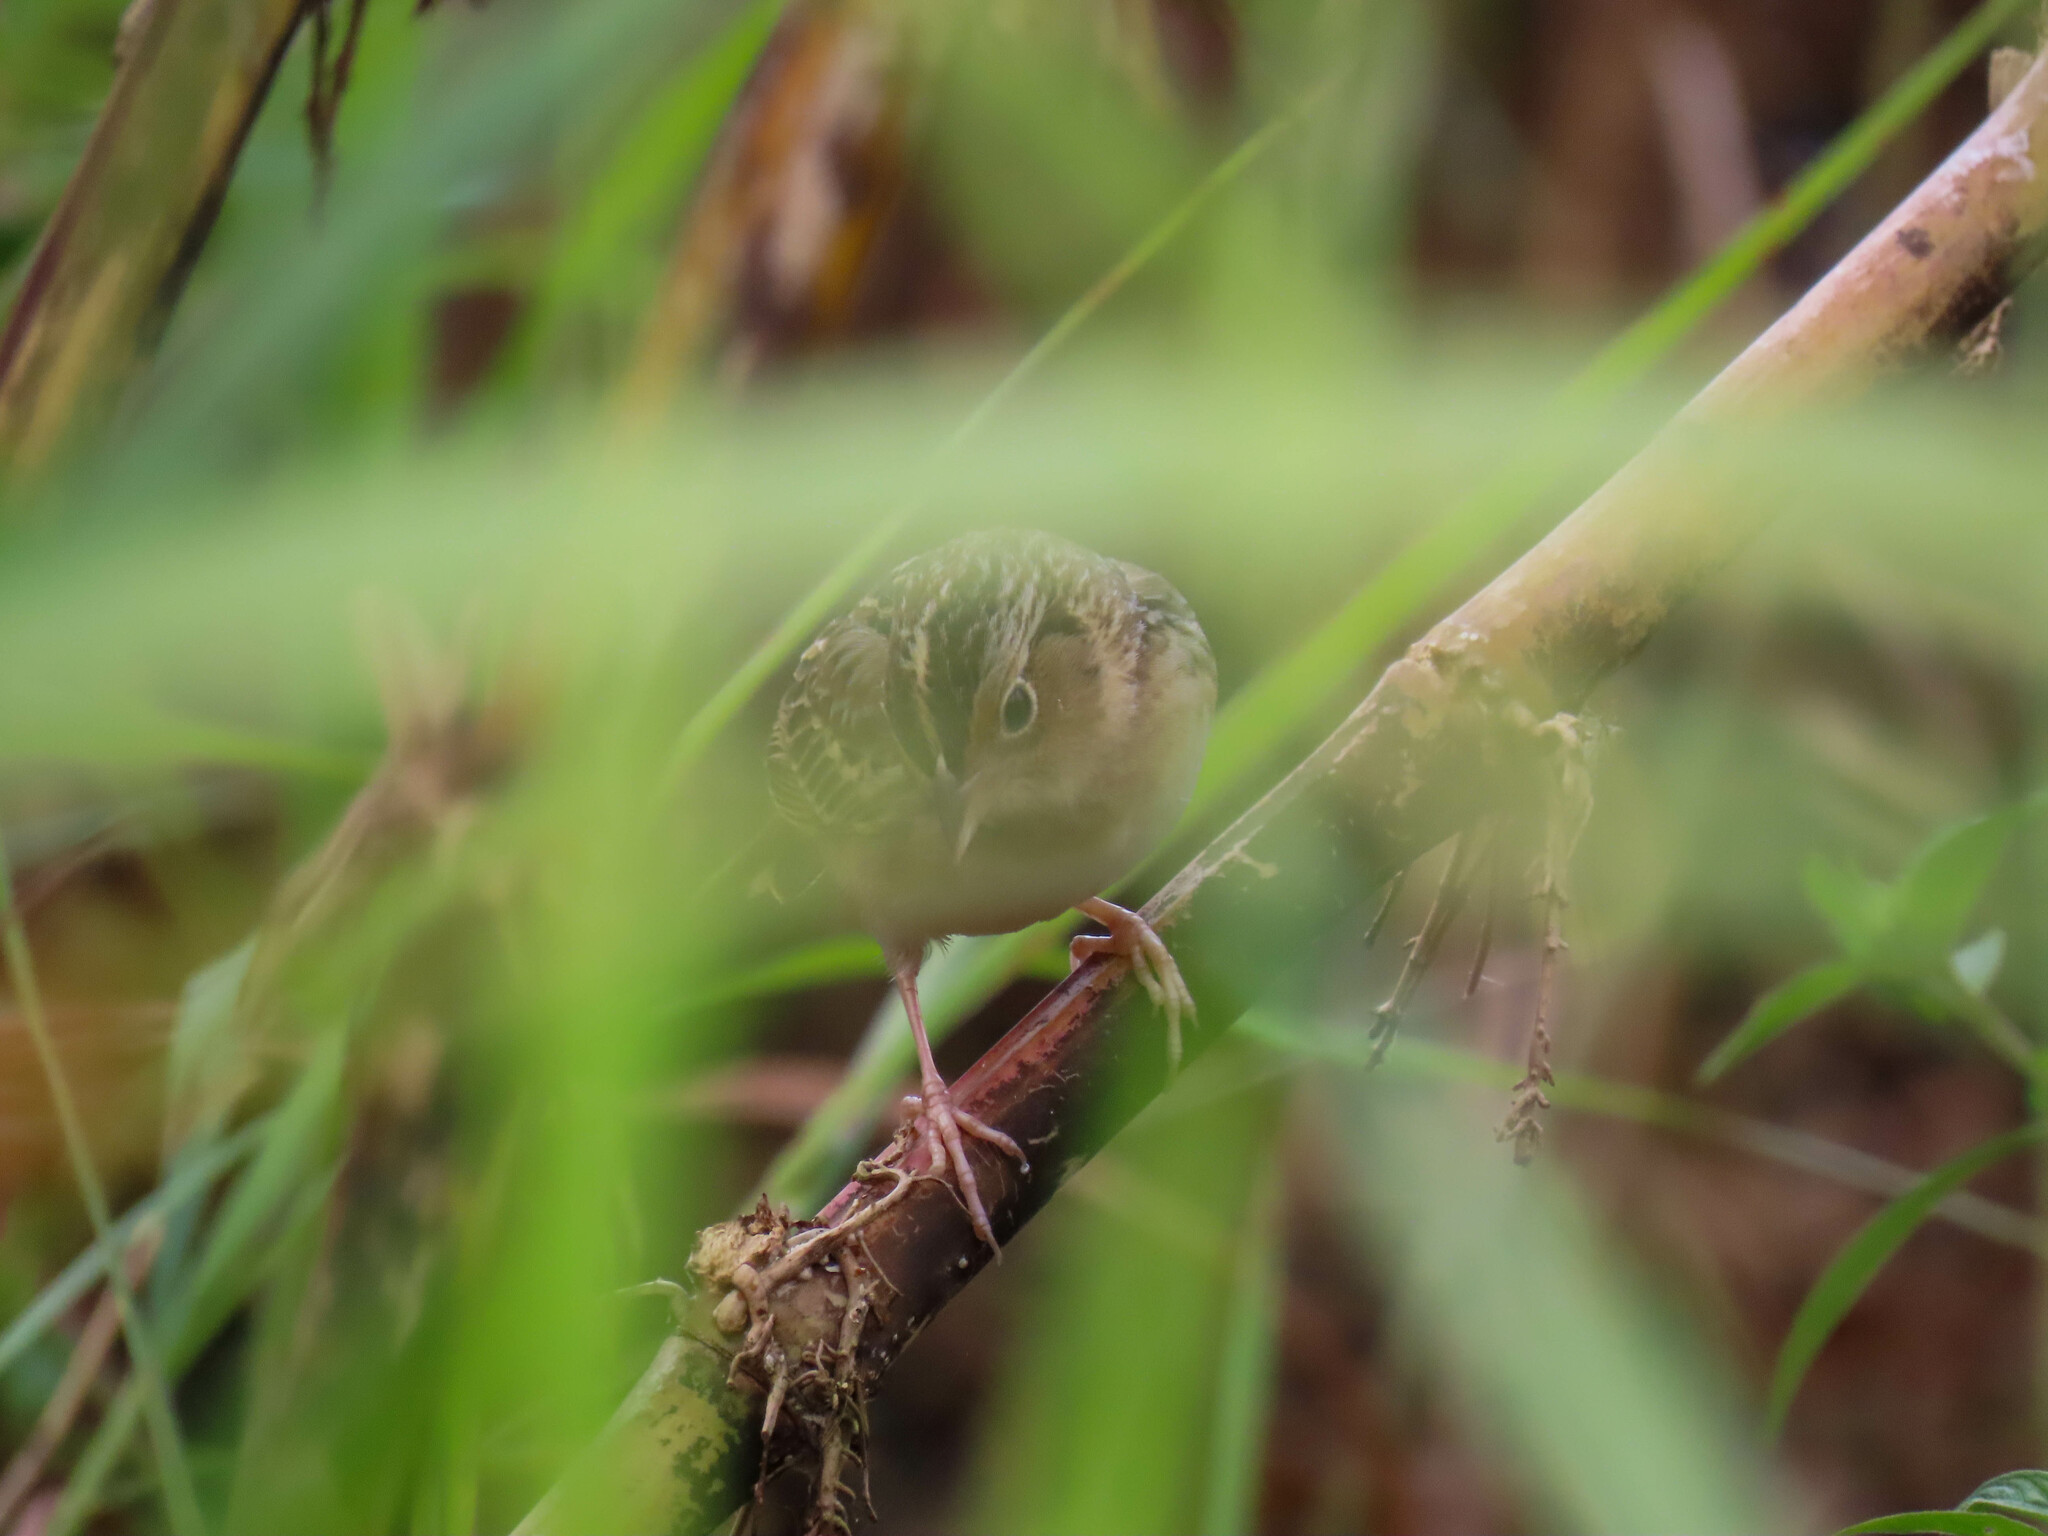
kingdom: Animalia
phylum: Chordata
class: Aves
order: Passeriformes
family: Passerellidae
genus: Ammodramus
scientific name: Ammodramus savannarum
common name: Grasshopper sparrow
